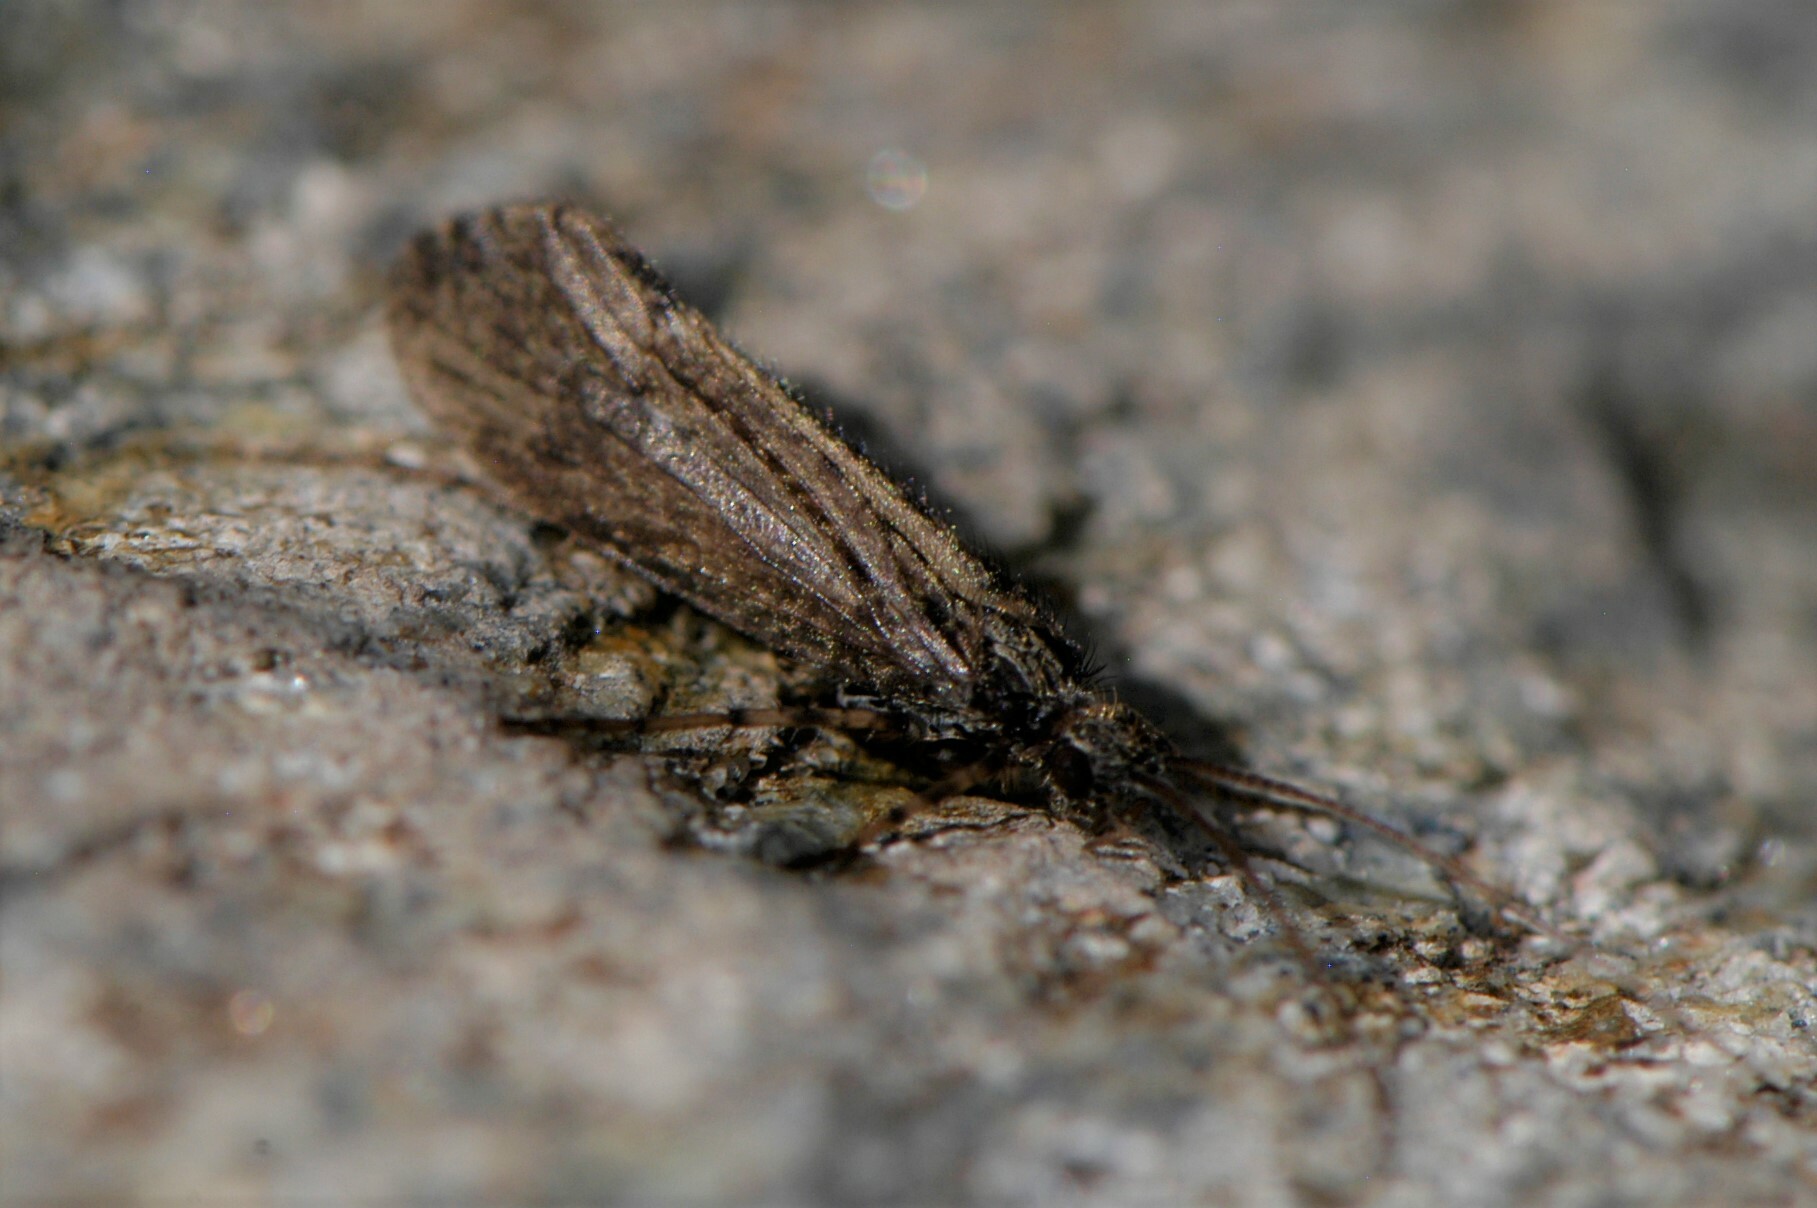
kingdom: Animalia
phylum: Arthropoda
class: Insecta
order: Trichoptera
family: Limnephilidae
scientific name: Limnephilidae
